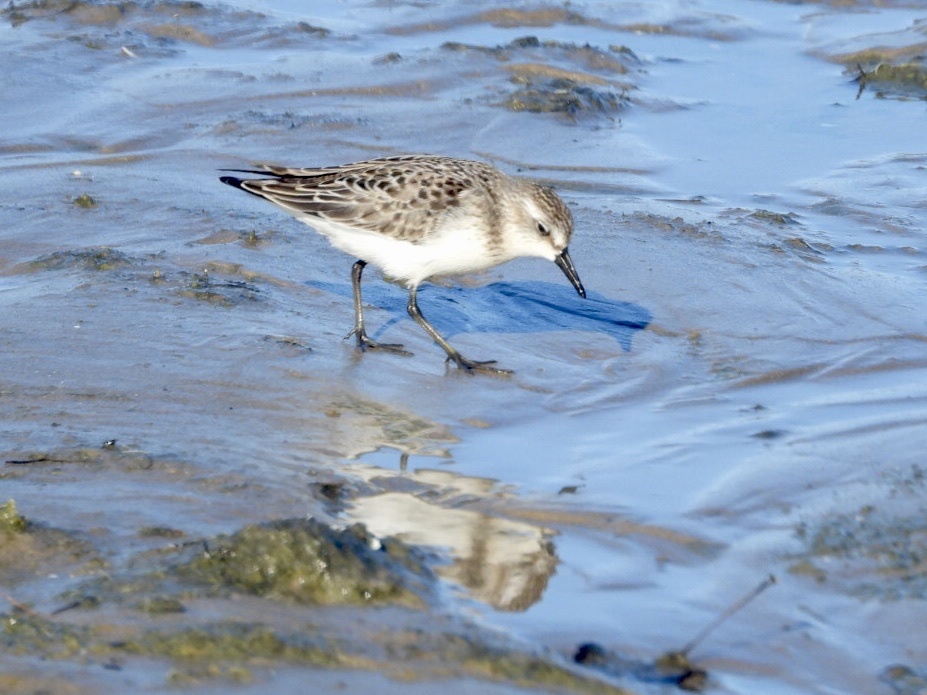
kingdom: Animalia
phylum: Chordata
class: Aves
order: Charadriiformes
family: Scolopacidae
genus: Calidris
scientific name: Calidris pusilla
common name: Semipalmated sandpiper
